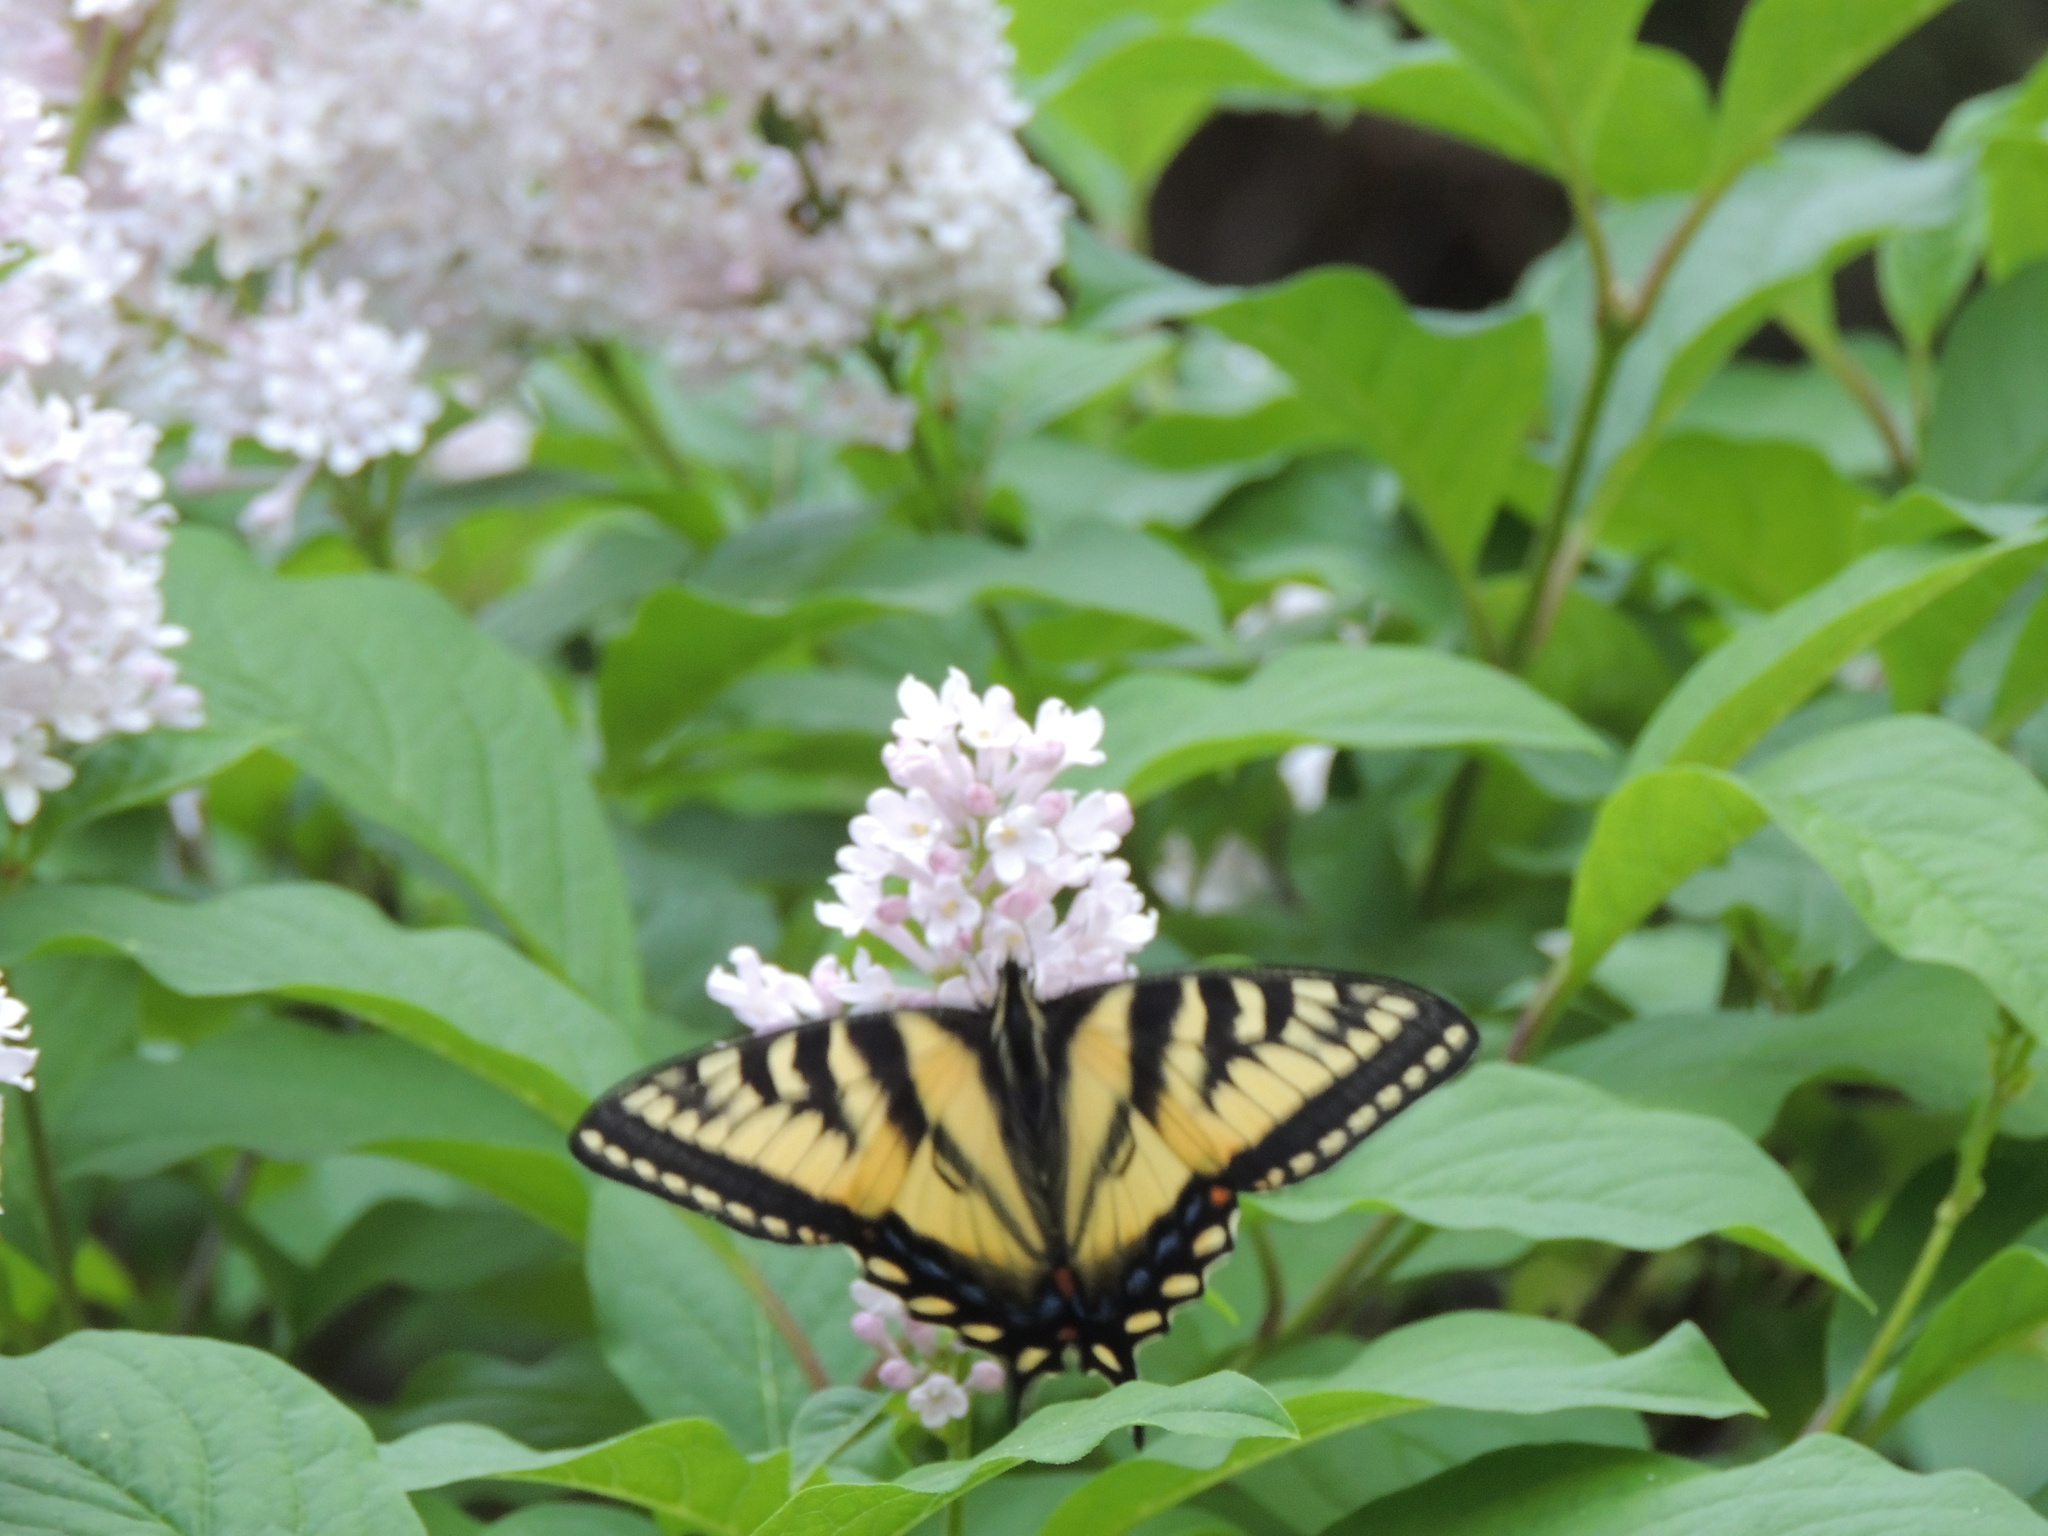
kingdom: Animalia
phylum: Arthropoda
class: Insecta
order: Lepidoptera
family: Papilionidae
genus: Papilio
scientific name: Papilio canadensis
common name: Canadian tiger swallowtail
